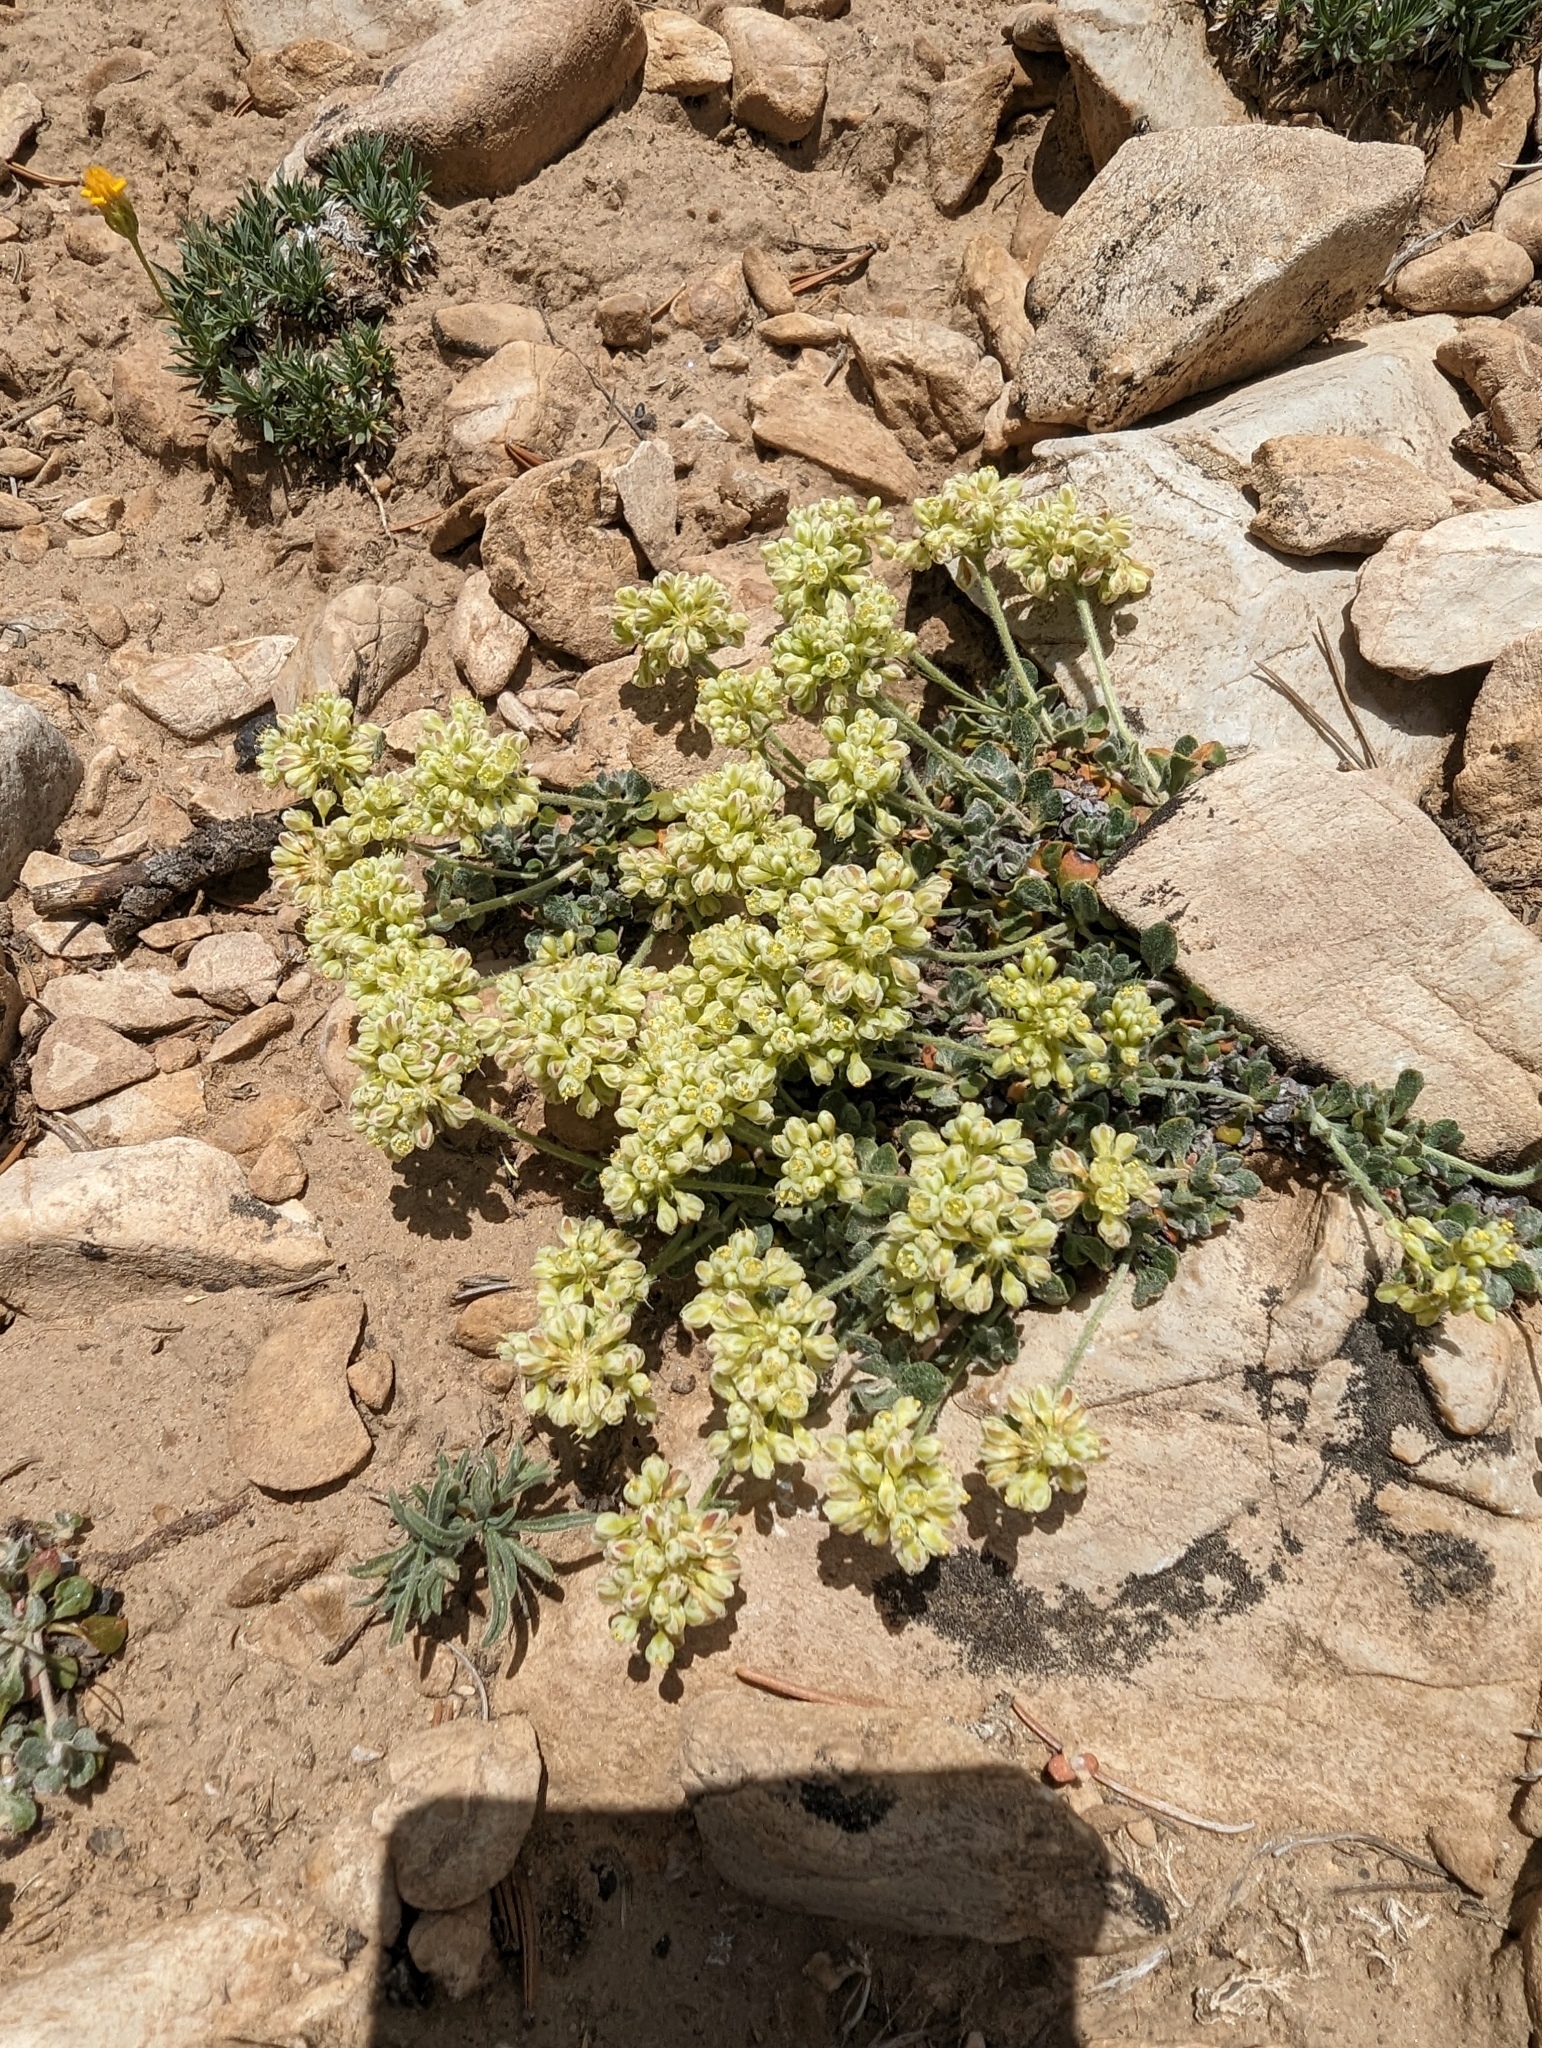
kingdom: Plantae
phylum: Tracheophyta
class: Magnoliopsida
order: Caryophyllales
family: Polygonaceae
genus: Eriogonum
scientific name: Eriogonum umbellatum
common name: Sulfur-buckwheat
